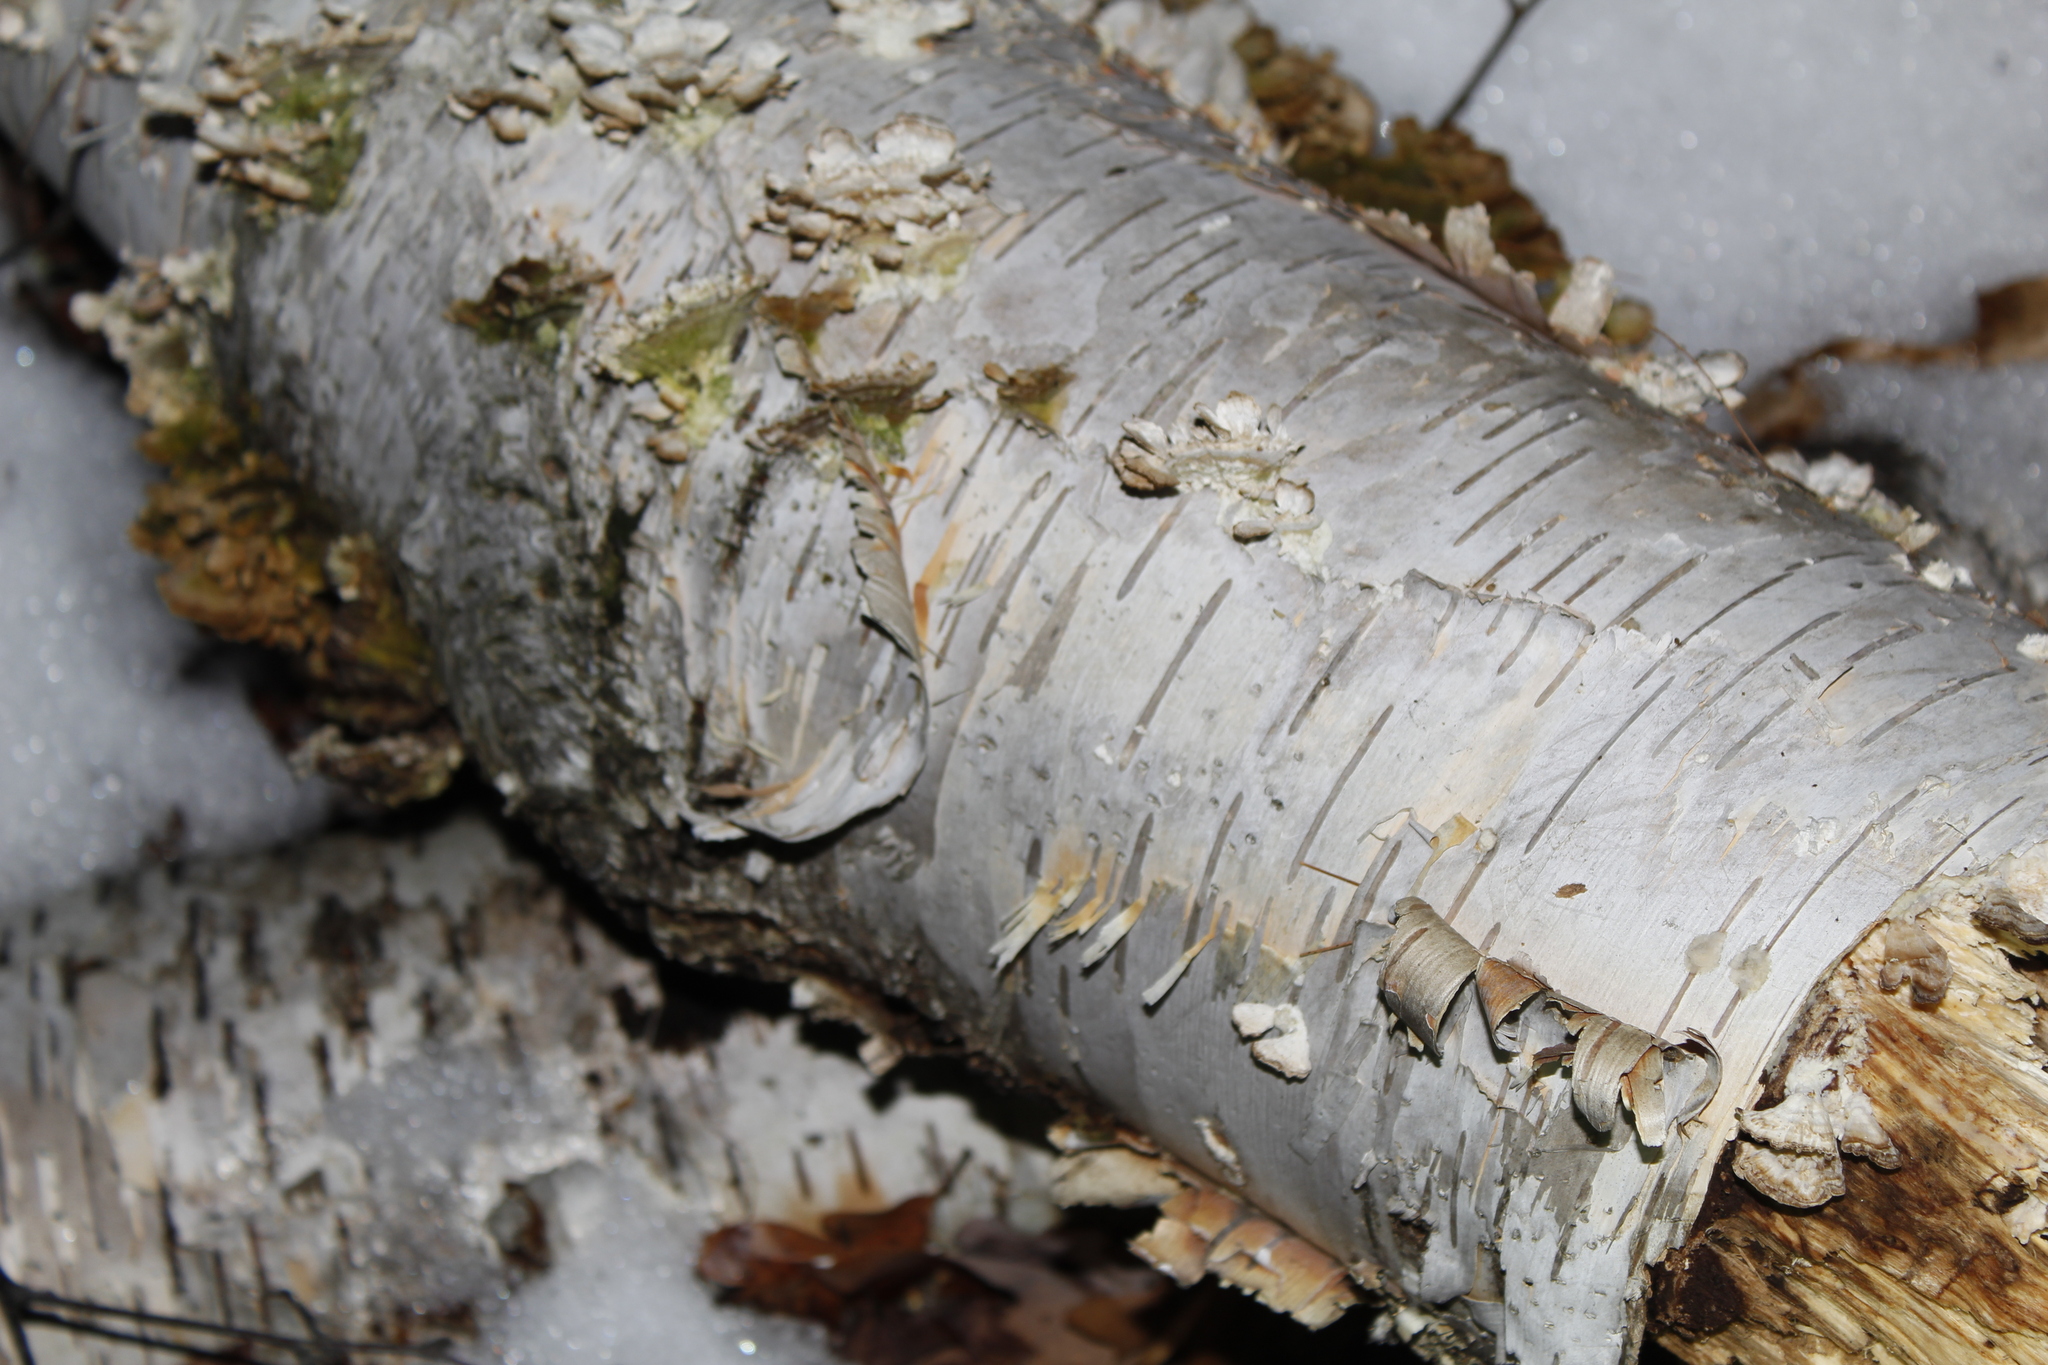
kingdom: Plantae
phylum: Tracheophyta
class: Magnoliopsida
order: Fagales
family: Betulaceae
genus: Betula
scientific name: Betula papyrifera
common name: Paper birch
